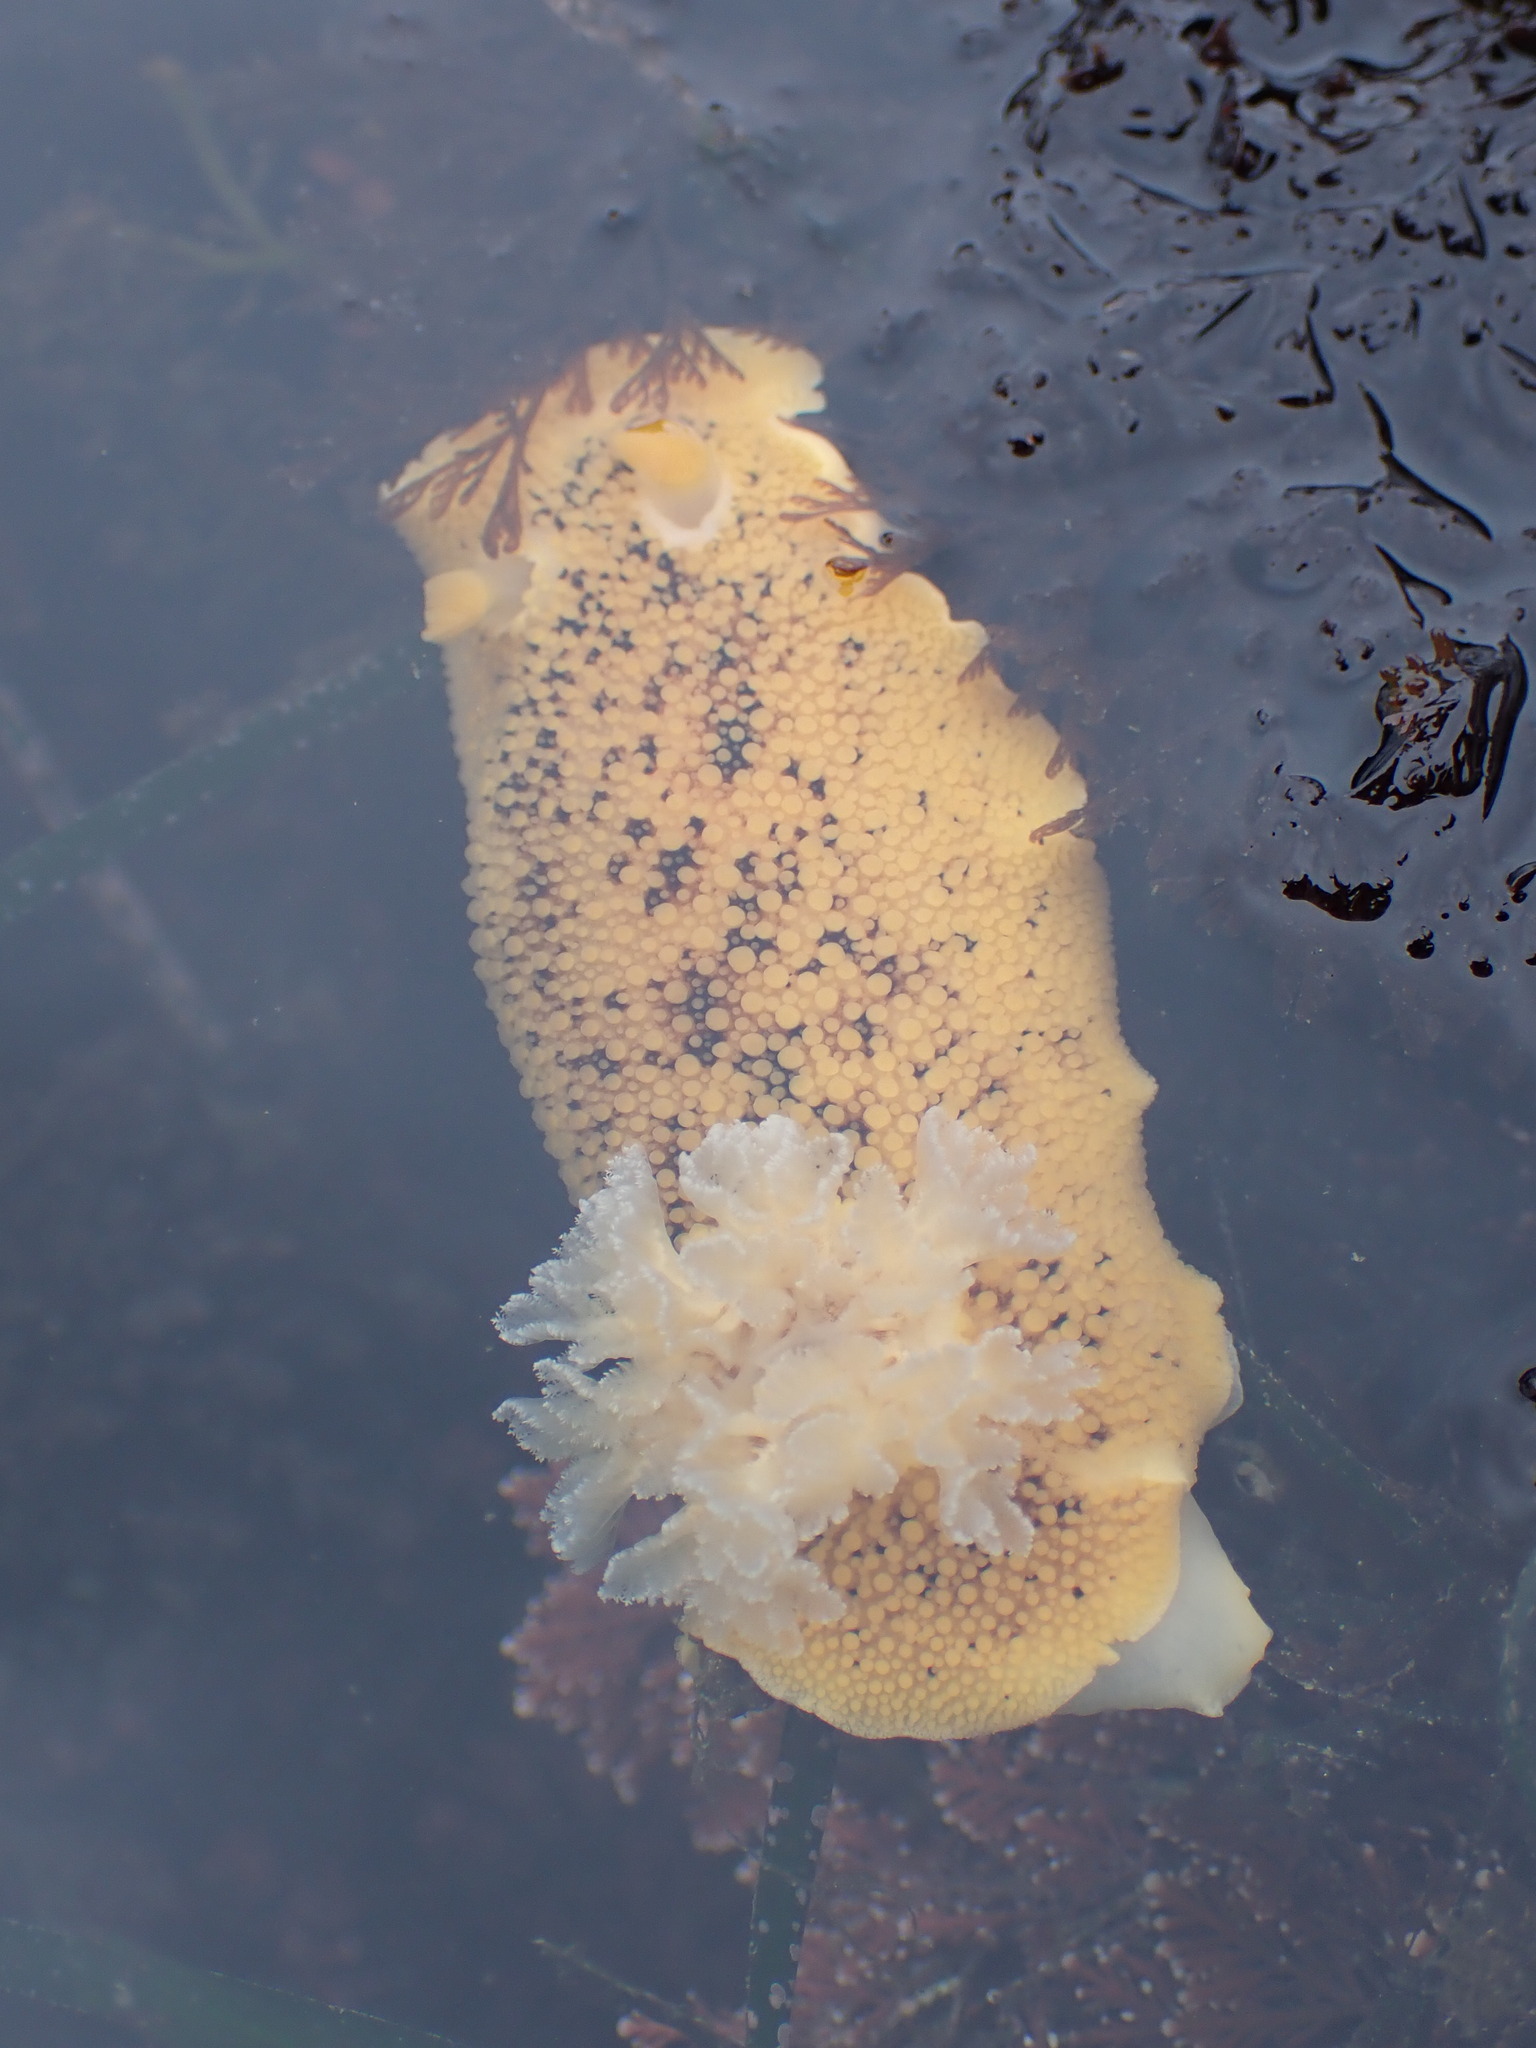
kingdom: Animalia
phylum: Mollusca
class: Gastropoda
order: Nudibranchia
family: Discodorididae
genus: Peltodoris
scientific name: Peltodoris nobilis
